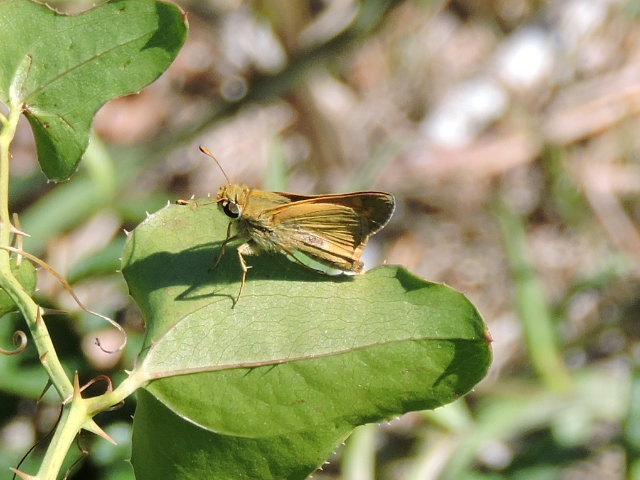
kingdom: Animalia
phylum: Arthropoda
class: Insecta
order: Lepidoptera
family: Hesperiidae
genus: Atalopedes
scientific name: Atalopedes
